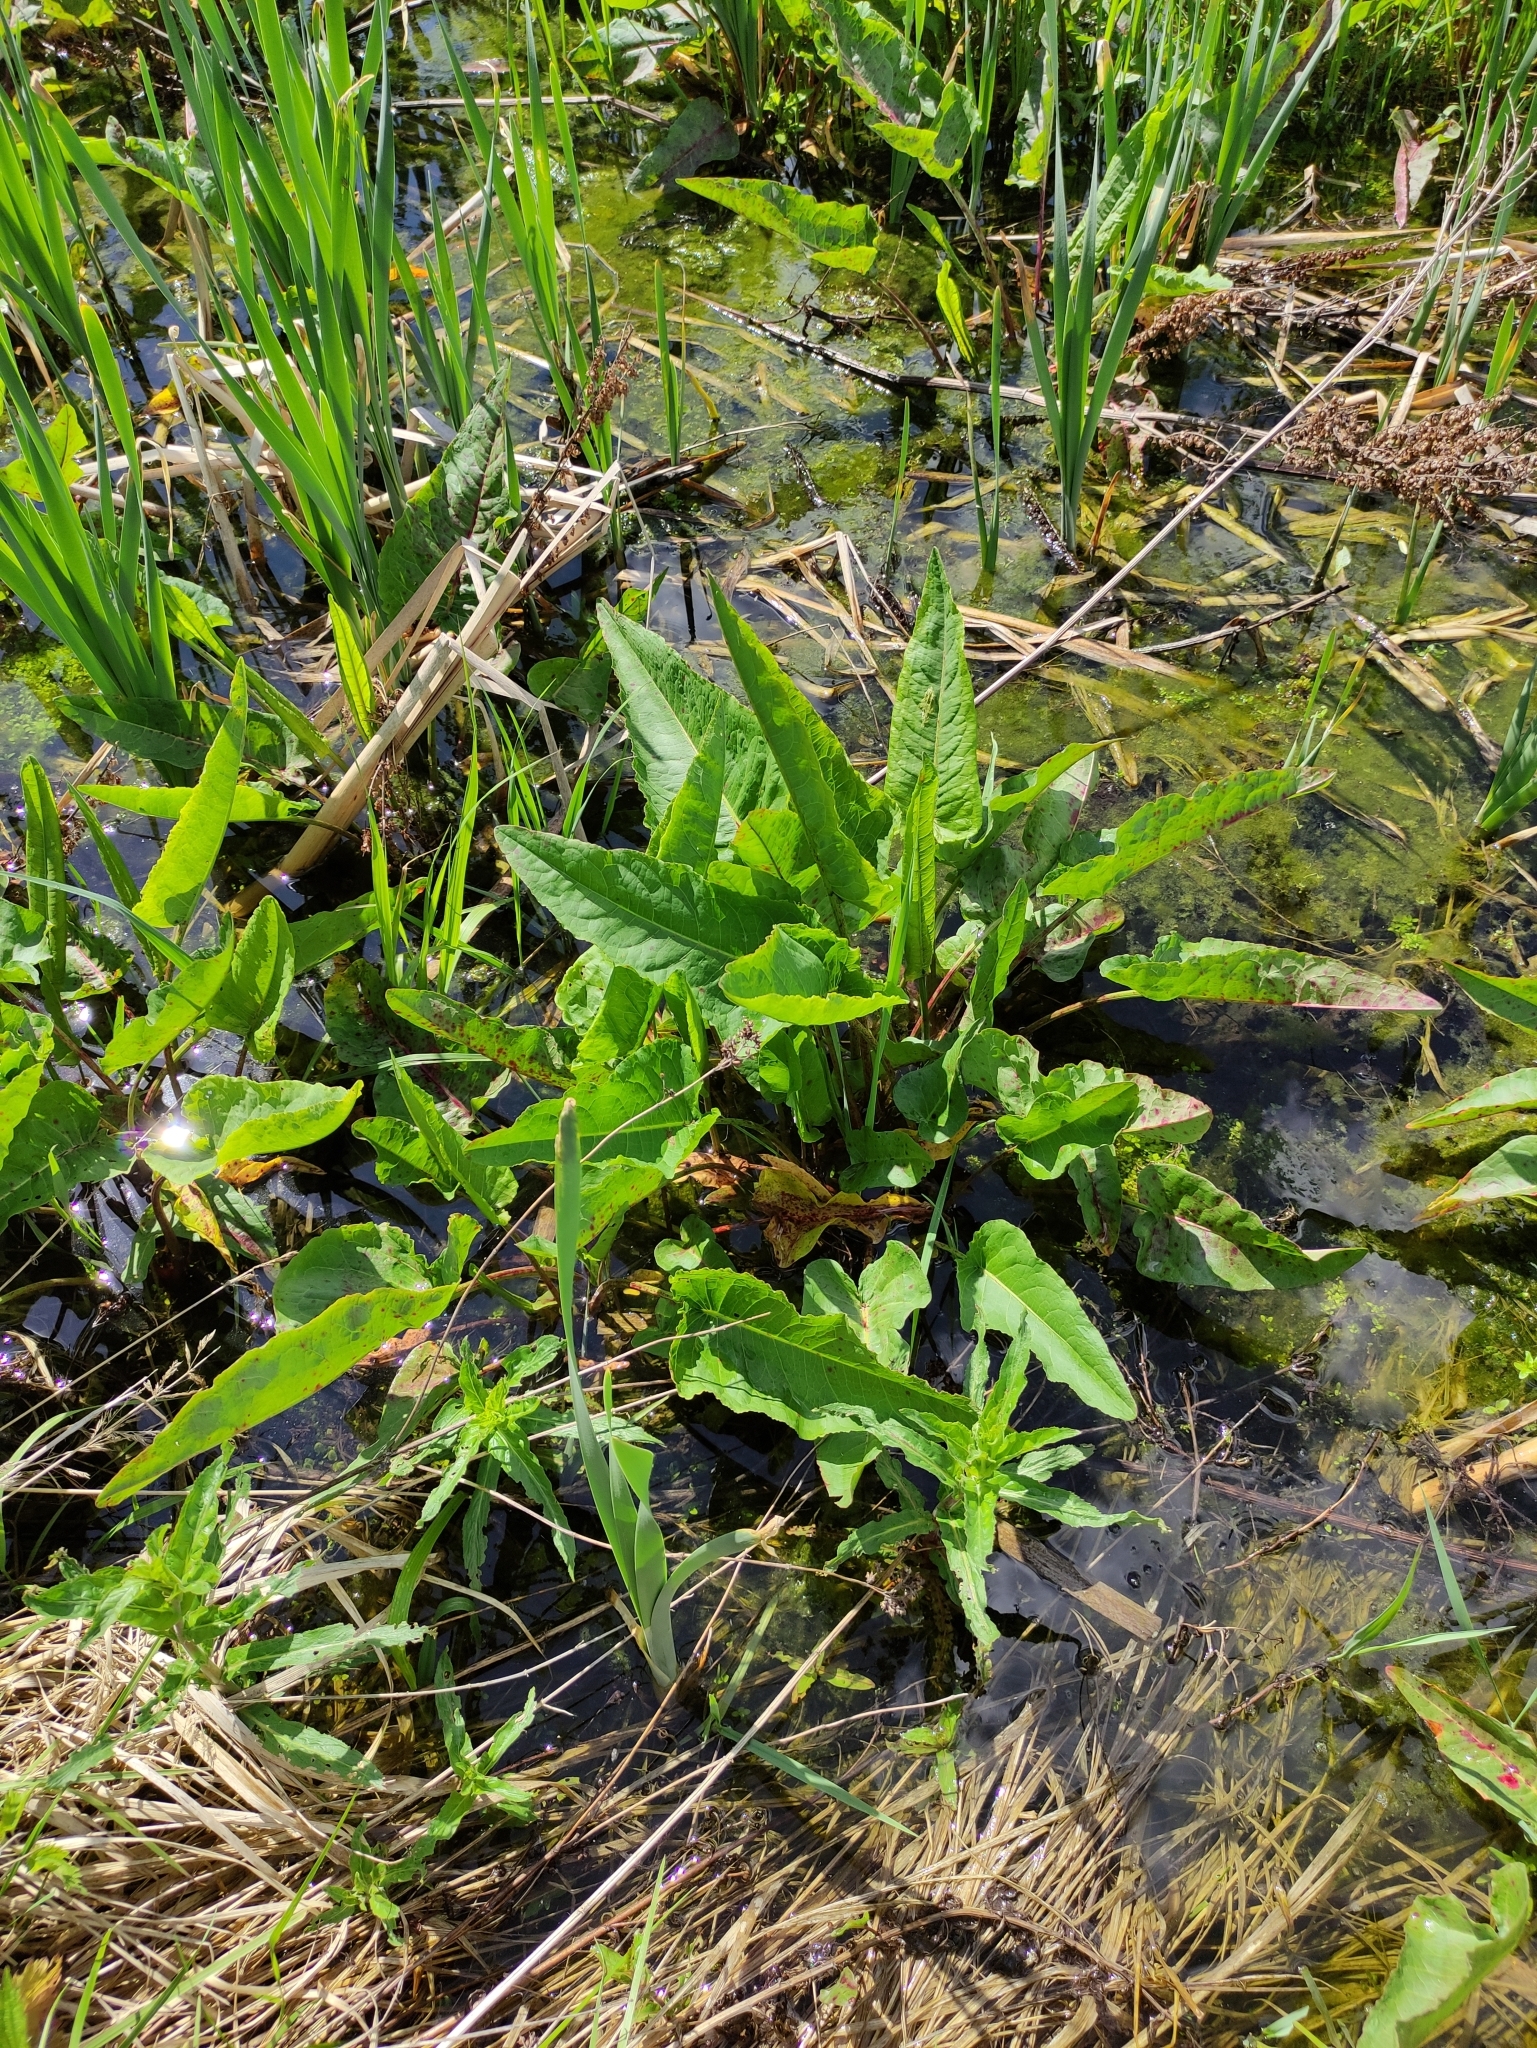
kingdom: Plantae
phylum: Tracheophyta
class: Magnoliopsida
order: Caryophyllales
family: Polygonaceae
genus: Rumex
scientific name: Rumex aquaticus
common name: Scottish dock
